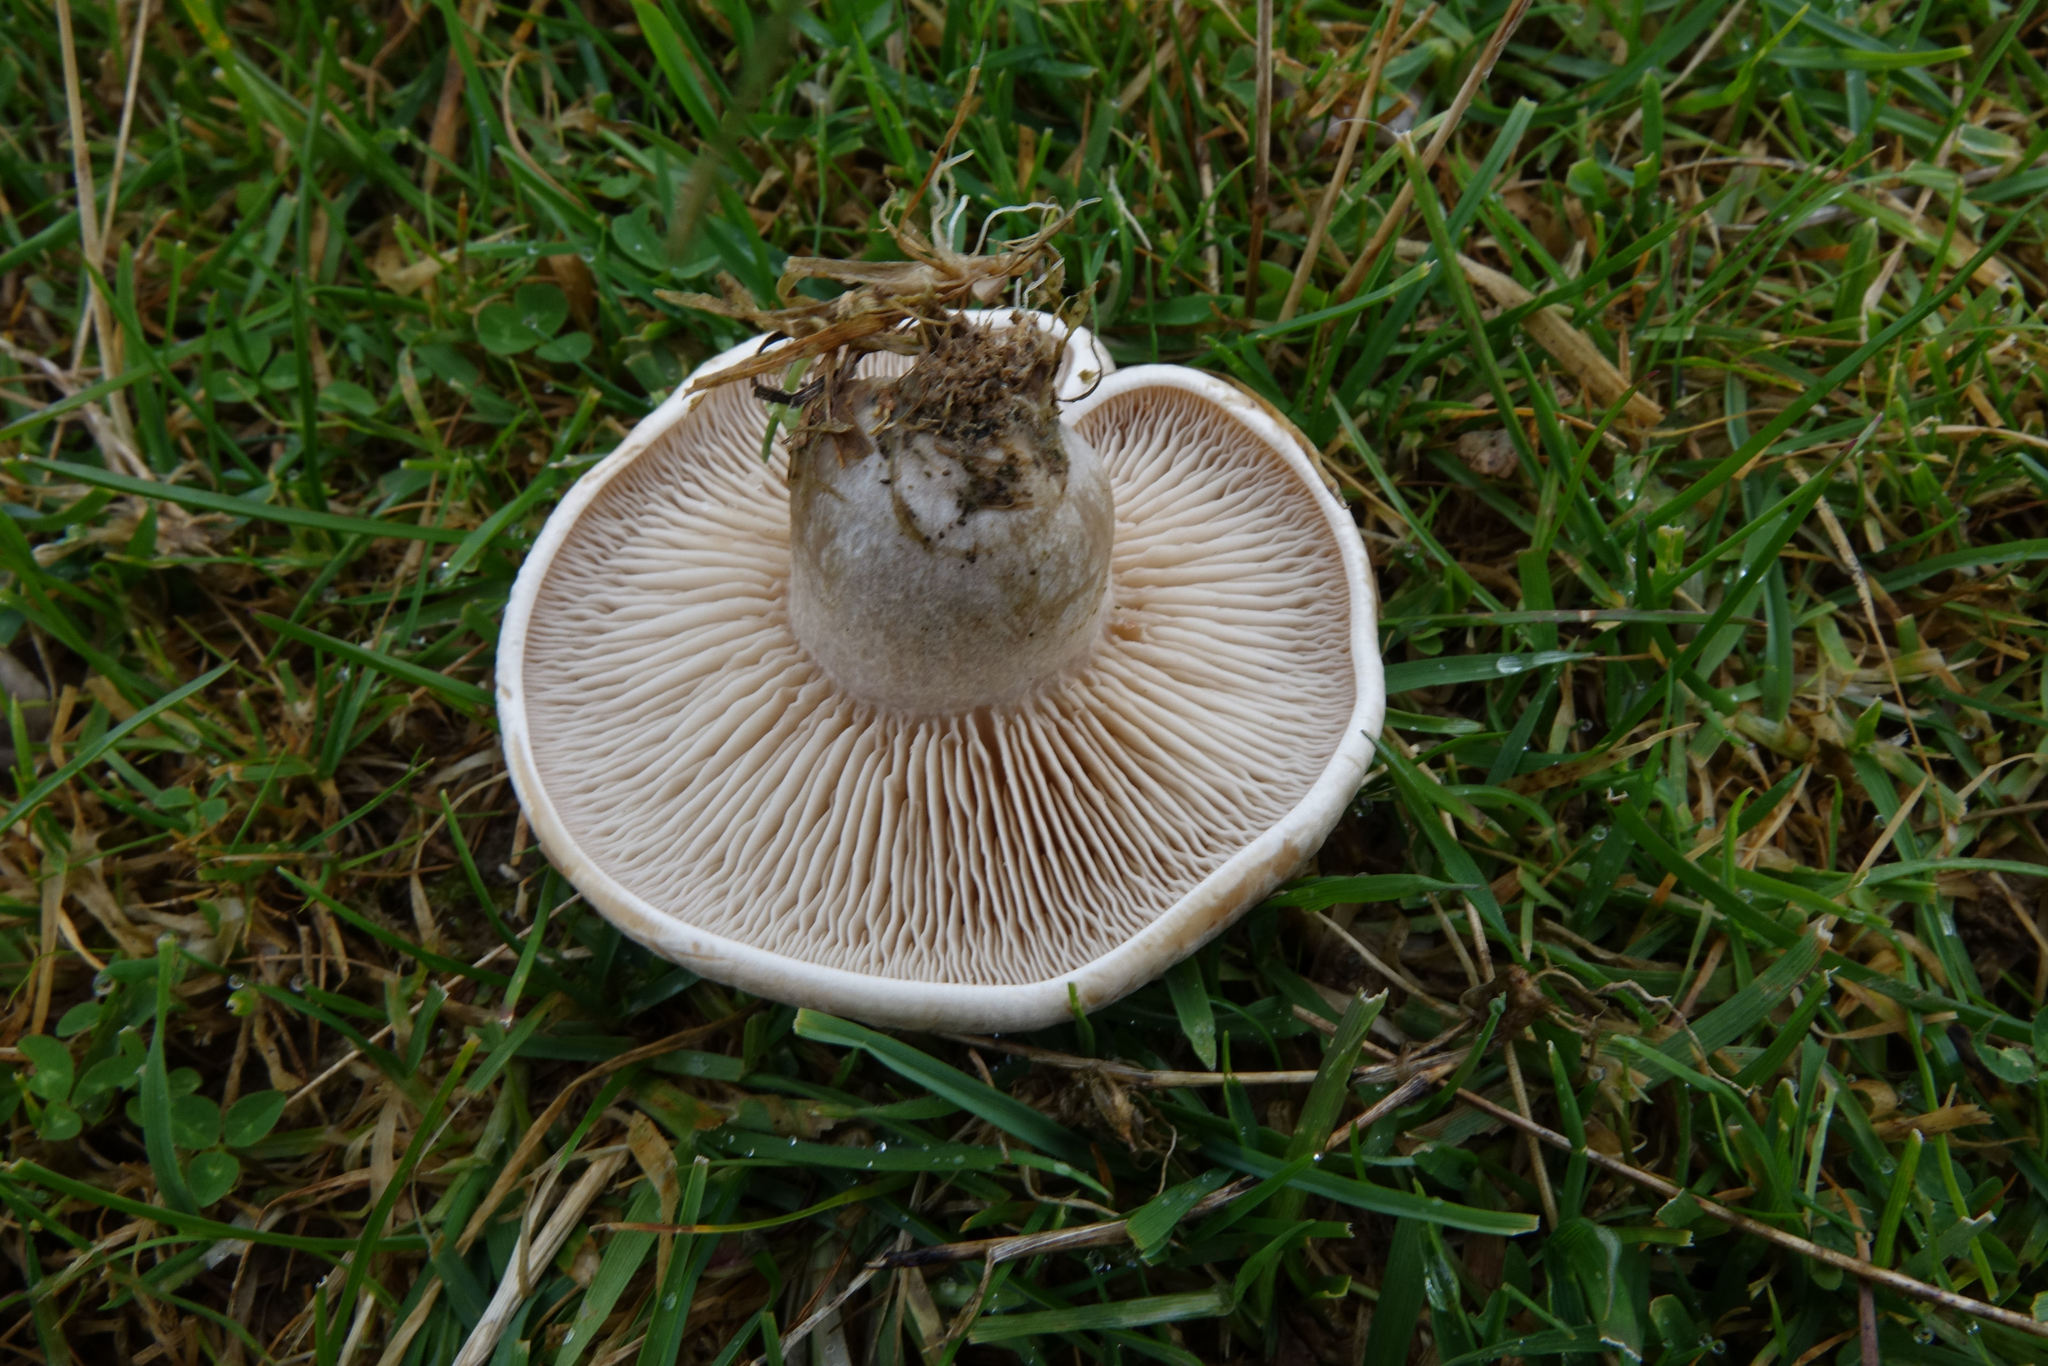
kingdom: Fungi
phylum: Basidiomycota
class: Agaricomycetes
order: Agaricales
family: Tricholomataceae
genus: Lepista
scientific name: Lepista luscina
